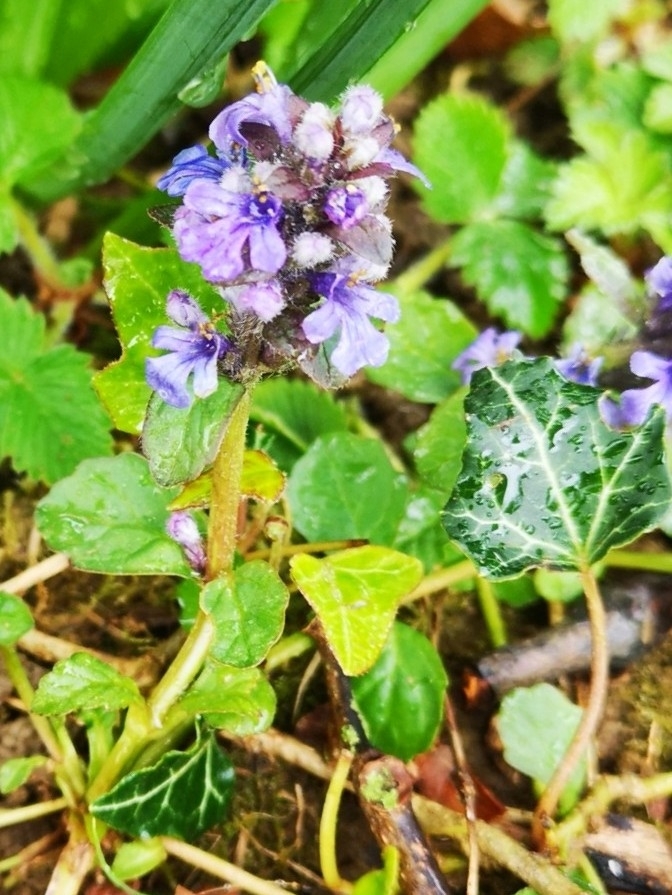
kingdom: Plantae
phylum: Tracheophyta
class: Magnoliopsida
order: Lamiales
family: Lamiaceae
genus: Ajuga
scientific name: Ajuga reptans
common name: Bugle
